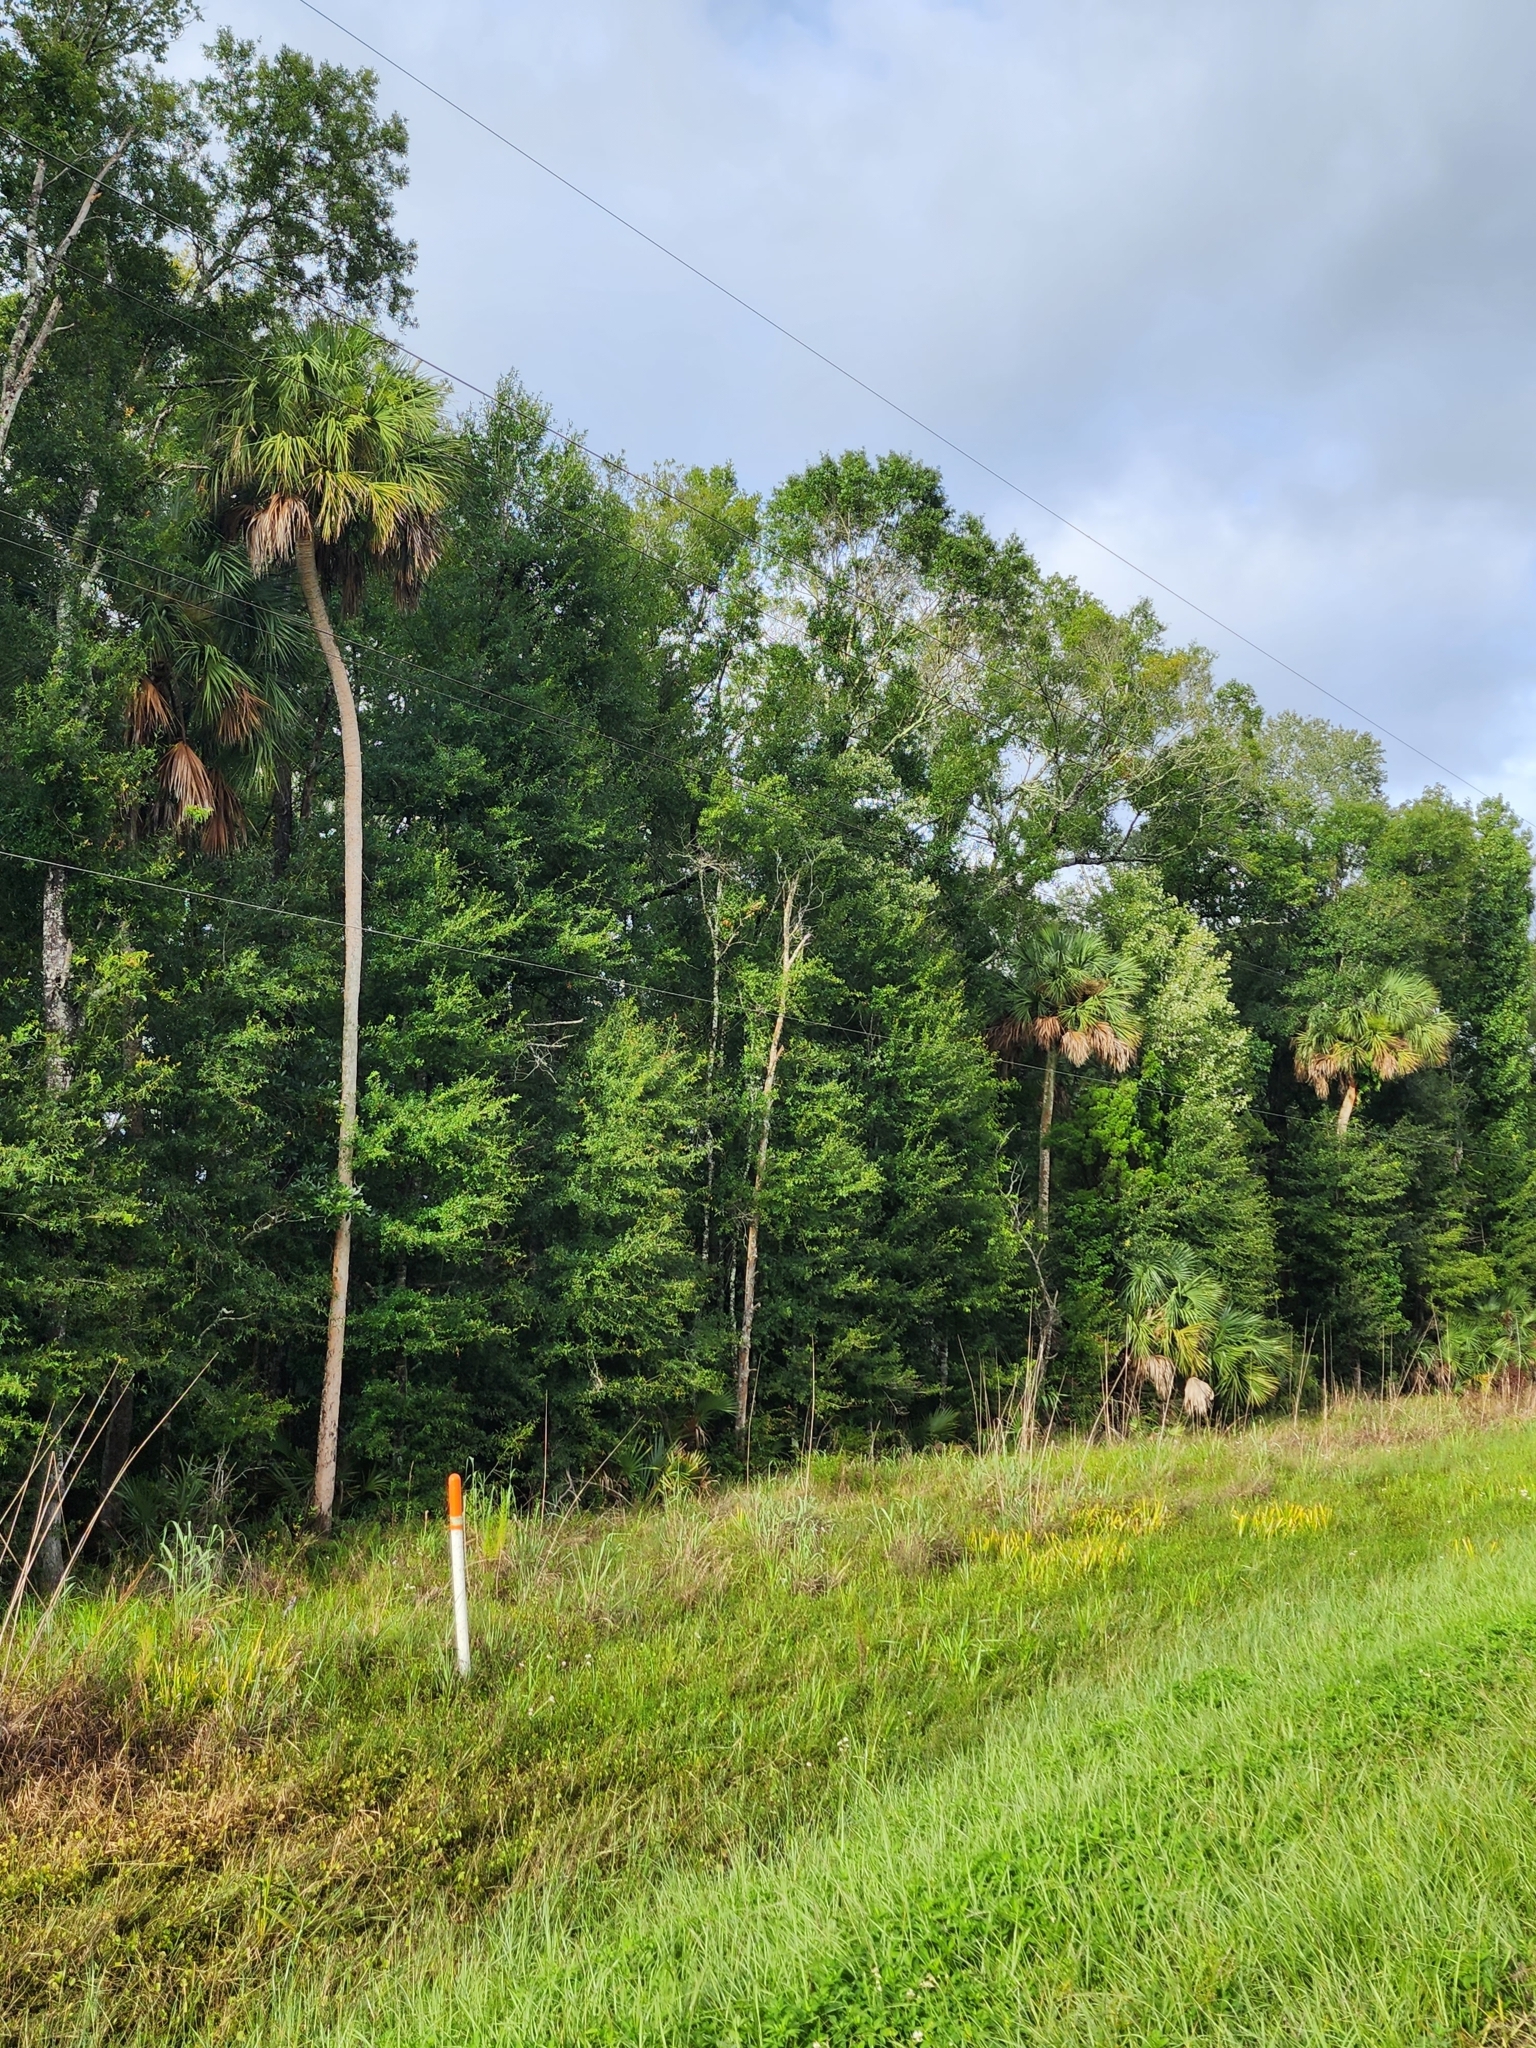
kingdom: Plantae
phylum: Tracheophyta
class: Liliopsida
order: Arecales
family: Arecaceae
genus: Sabal
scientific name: Sabal palmetto
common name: Blue palmetto
